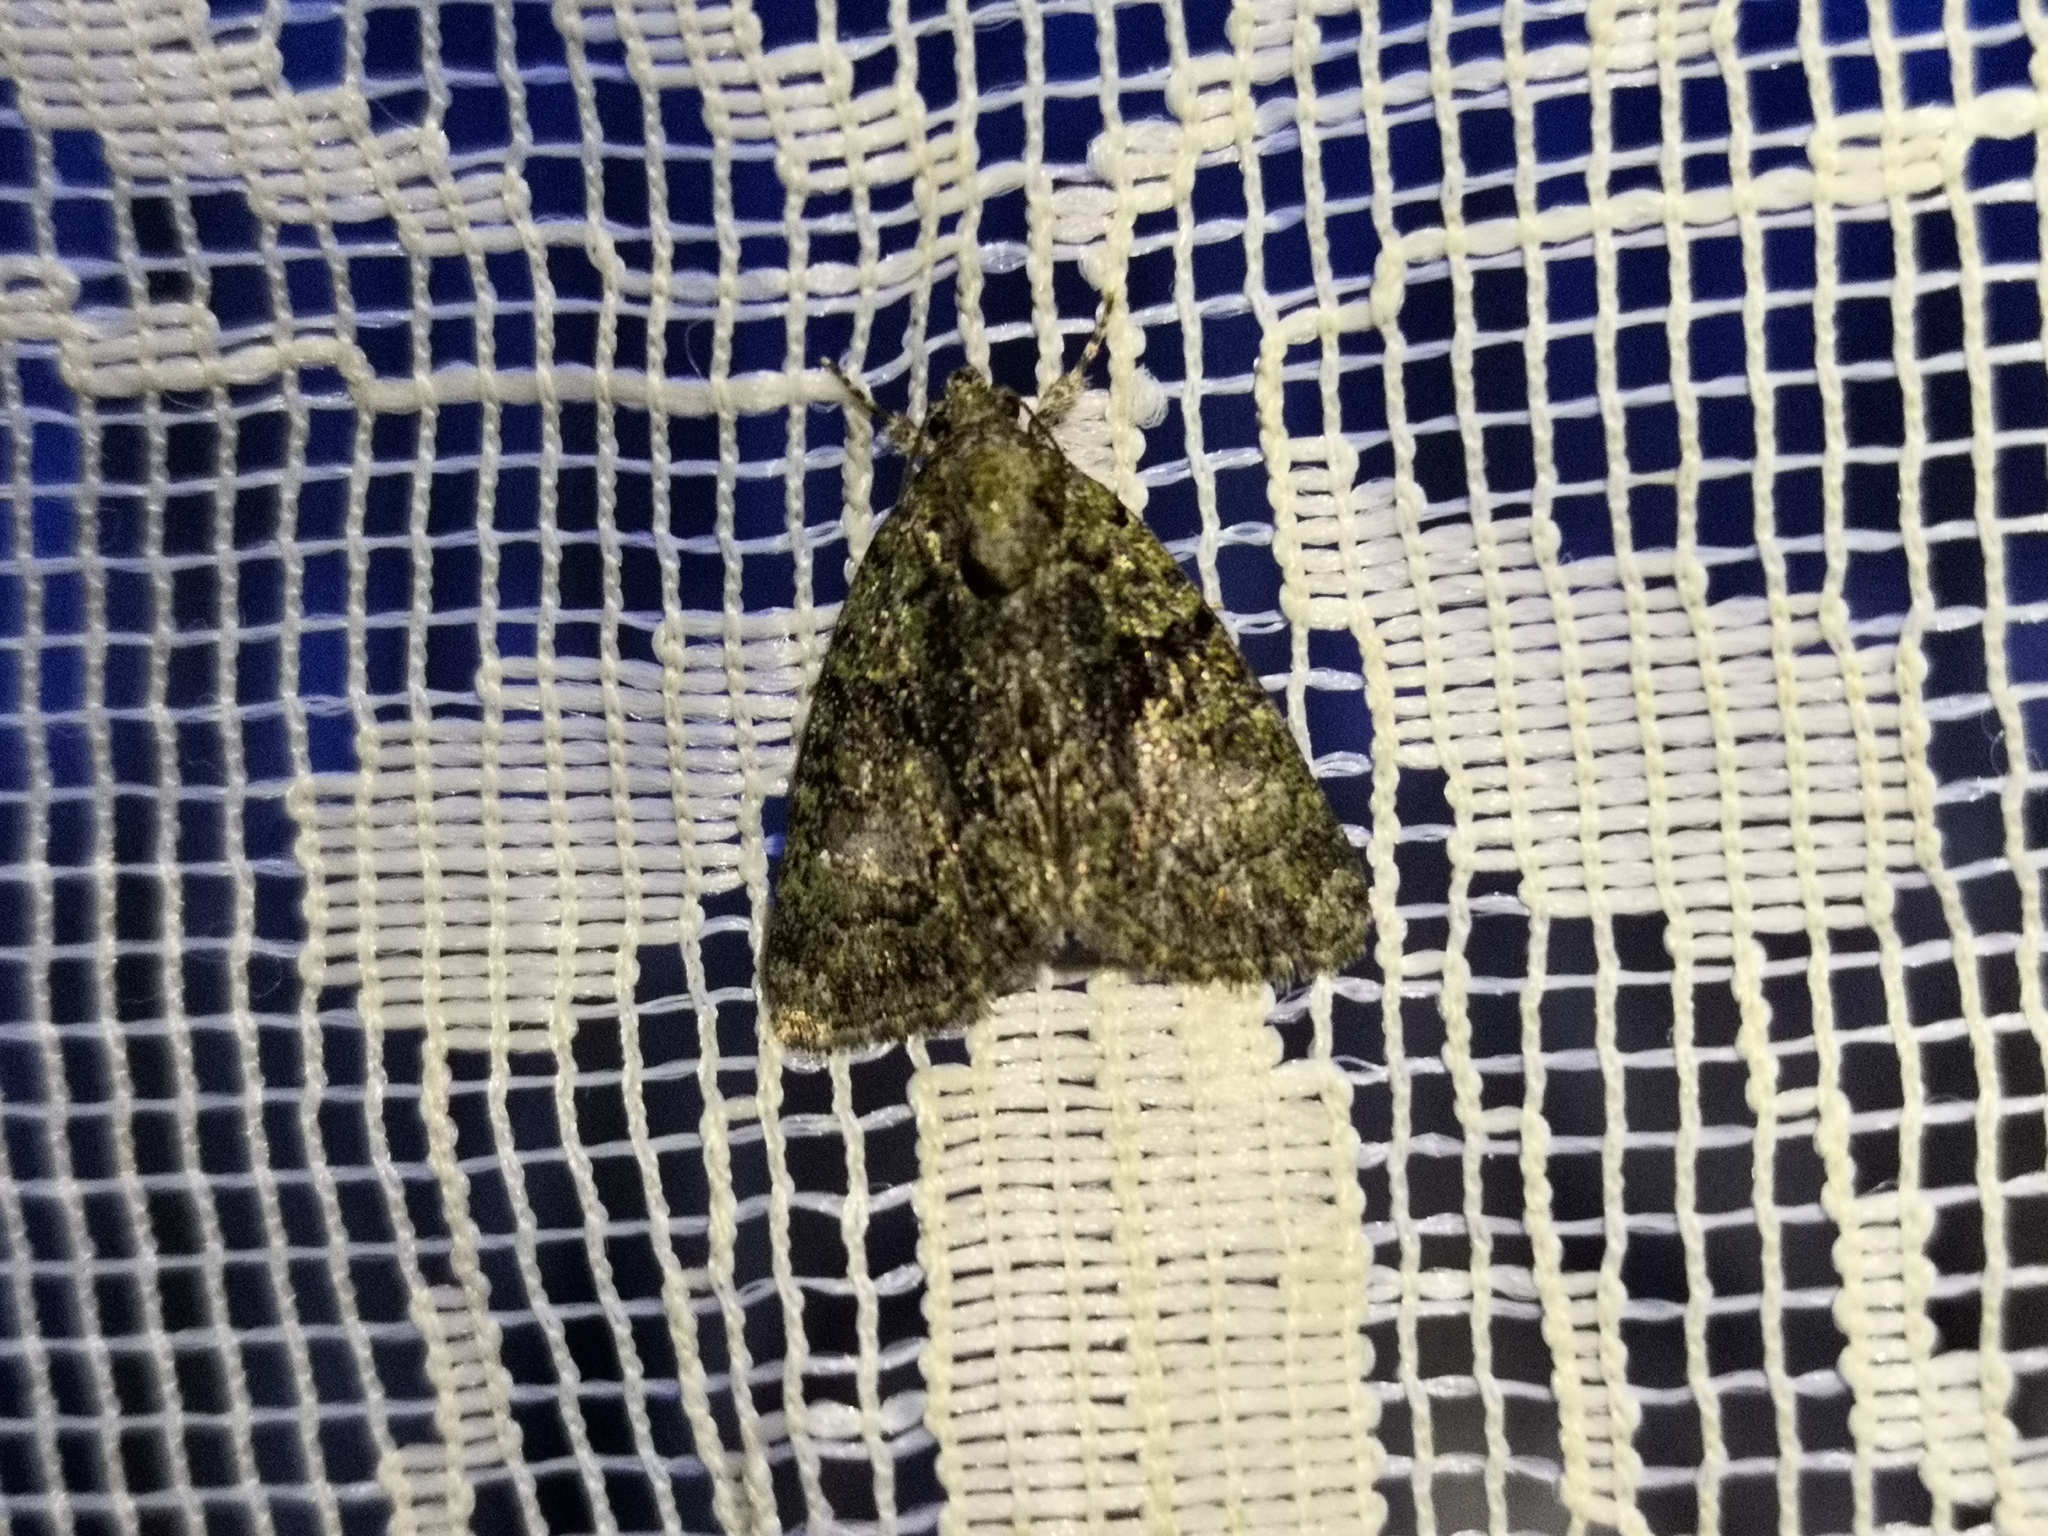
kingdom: Animalia
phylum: Arthropoda
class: Insecta
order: Lepidoptera
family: Noctuidae
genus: Cryphia
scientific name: Cryphia algae
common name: Tree-lichen beauty
